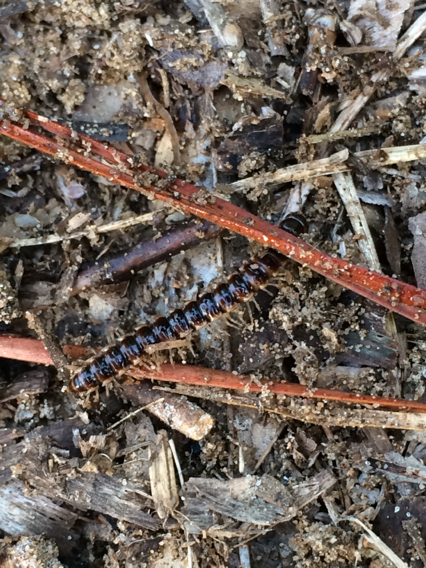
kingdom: Animalia
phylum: Arthropoda
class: Diplopoda
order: Polydesmida
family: Paradoxosomatidae
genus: Oxidus
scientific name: Oxidus gracilis
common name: Greenhouse millipede
